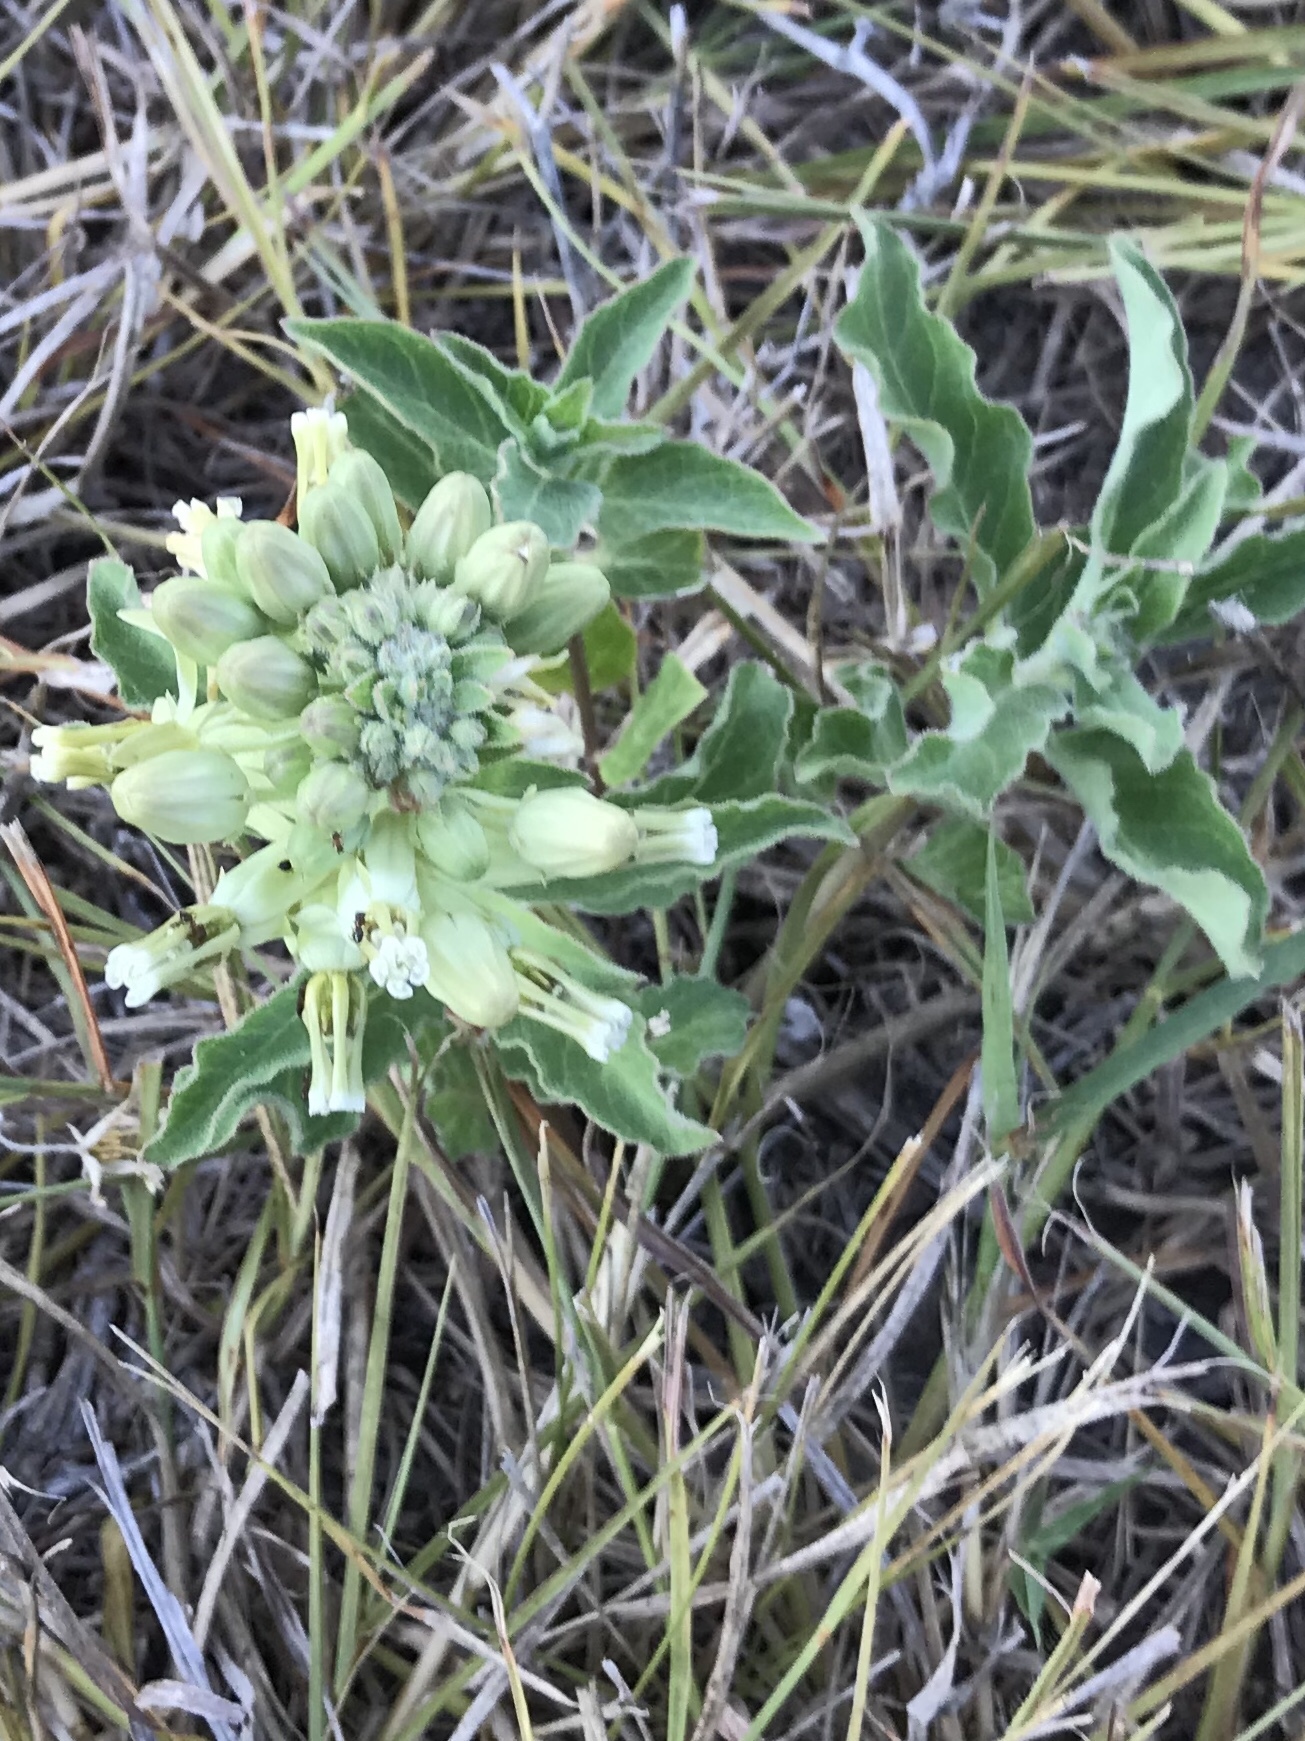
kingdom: Plantae
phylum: Tracheophyta
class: Magnoliopsida
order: Gentianales
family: Apocynaceae
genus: Asclepias
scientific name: Asclepias oenotheroides
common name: Zizotes milkweed
